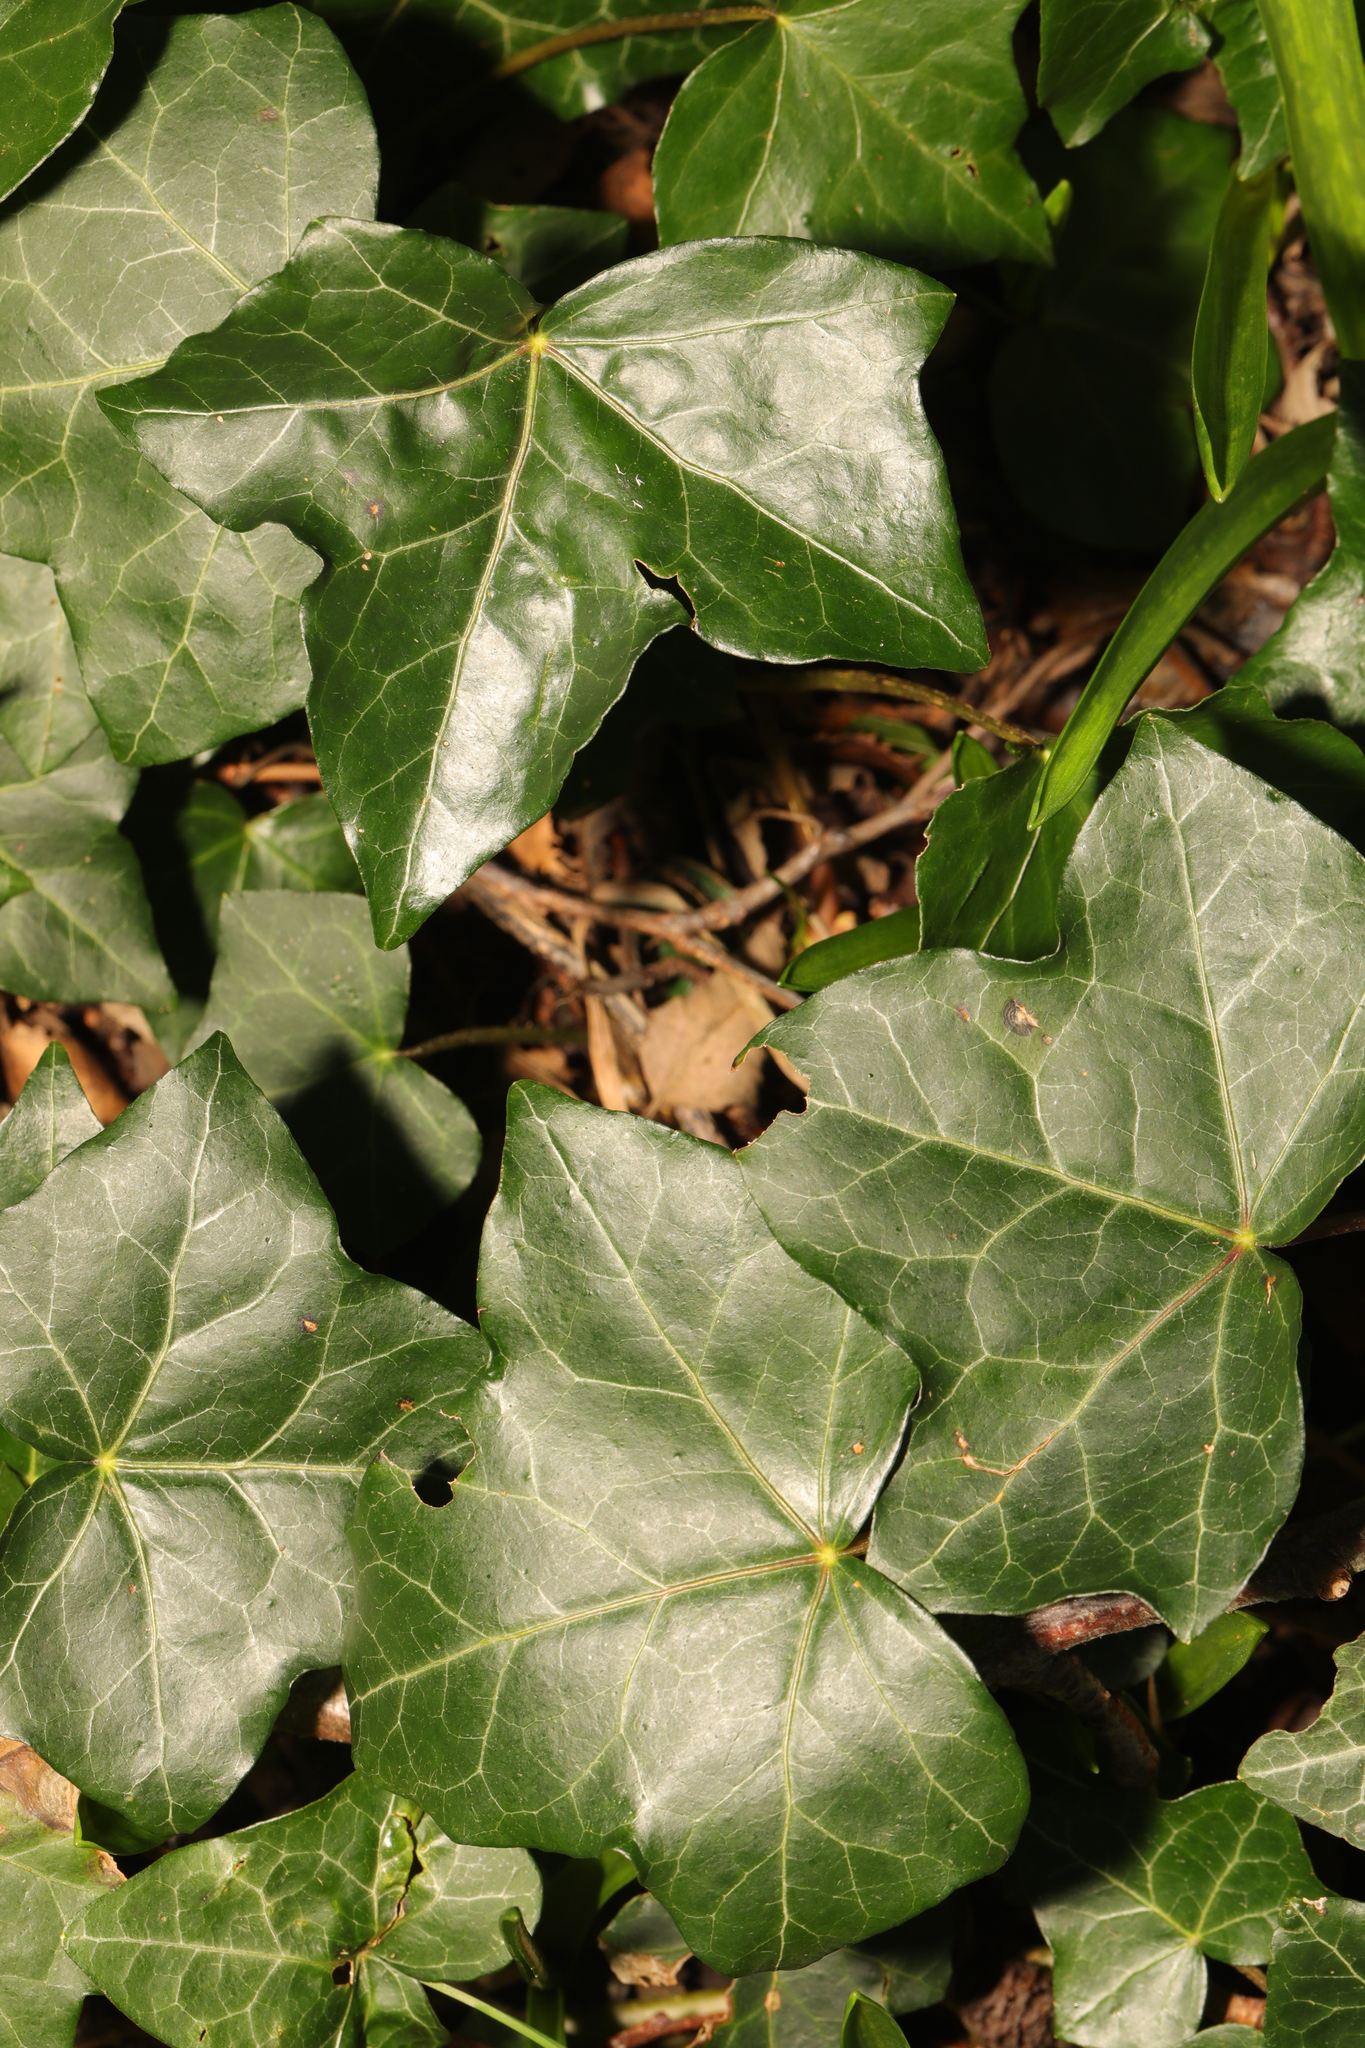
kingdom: Plantae
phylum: Tracheophyta
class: Magnoliopsida
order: Apiales
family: Araliaceae
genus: Hedera
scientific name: Hedera helix
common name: Ivy
